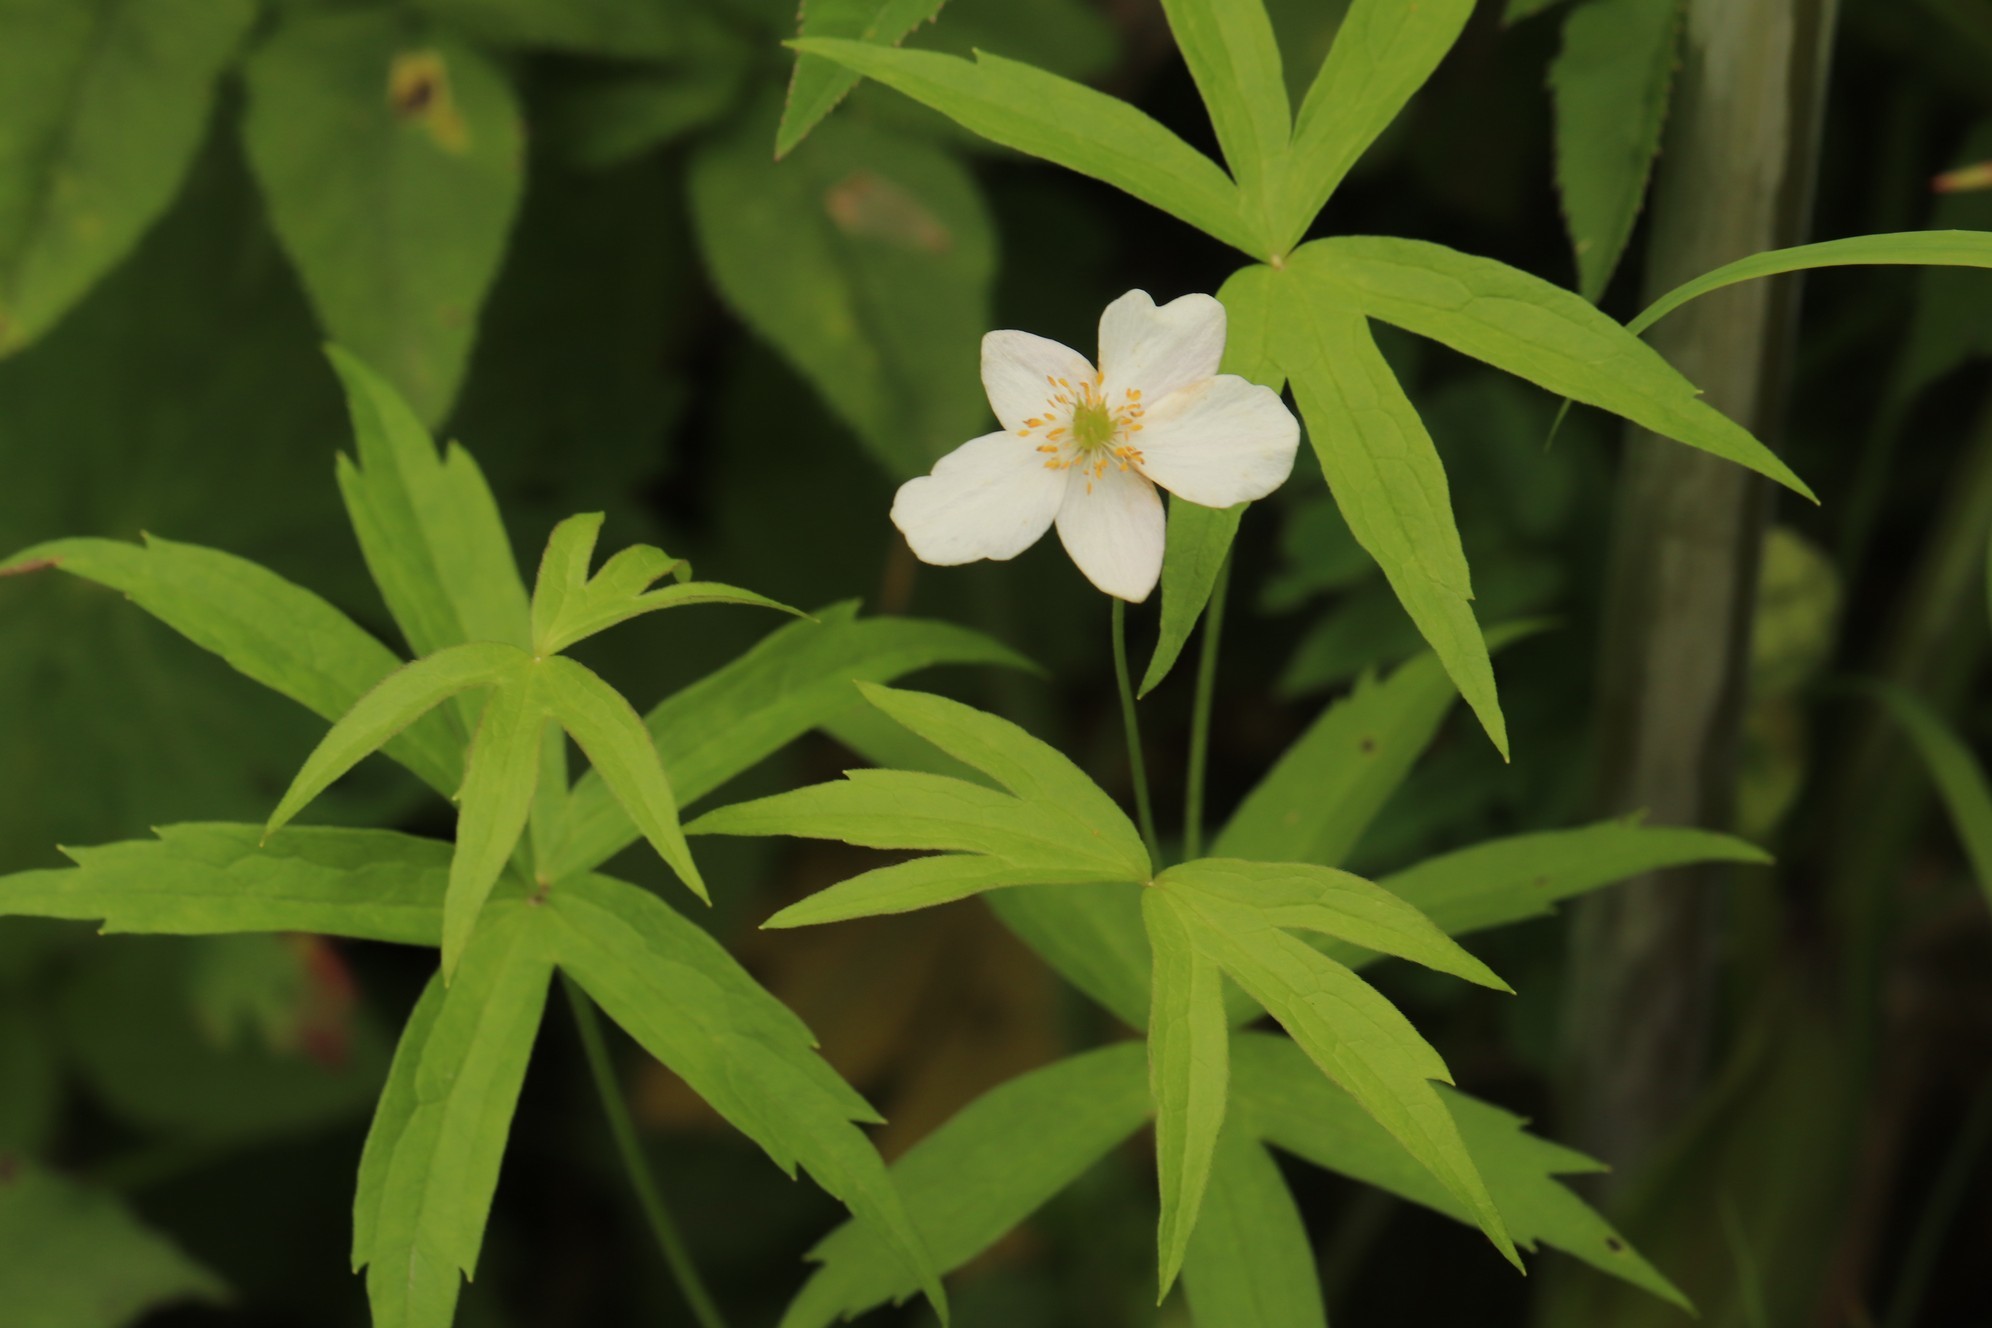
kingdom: Plantae
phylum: Tracheophyta
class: Magnoliopsida
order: Ranunculales
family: Ranunculaceae
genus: Anemonastrum
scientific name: Anemonastrum dichotomum
